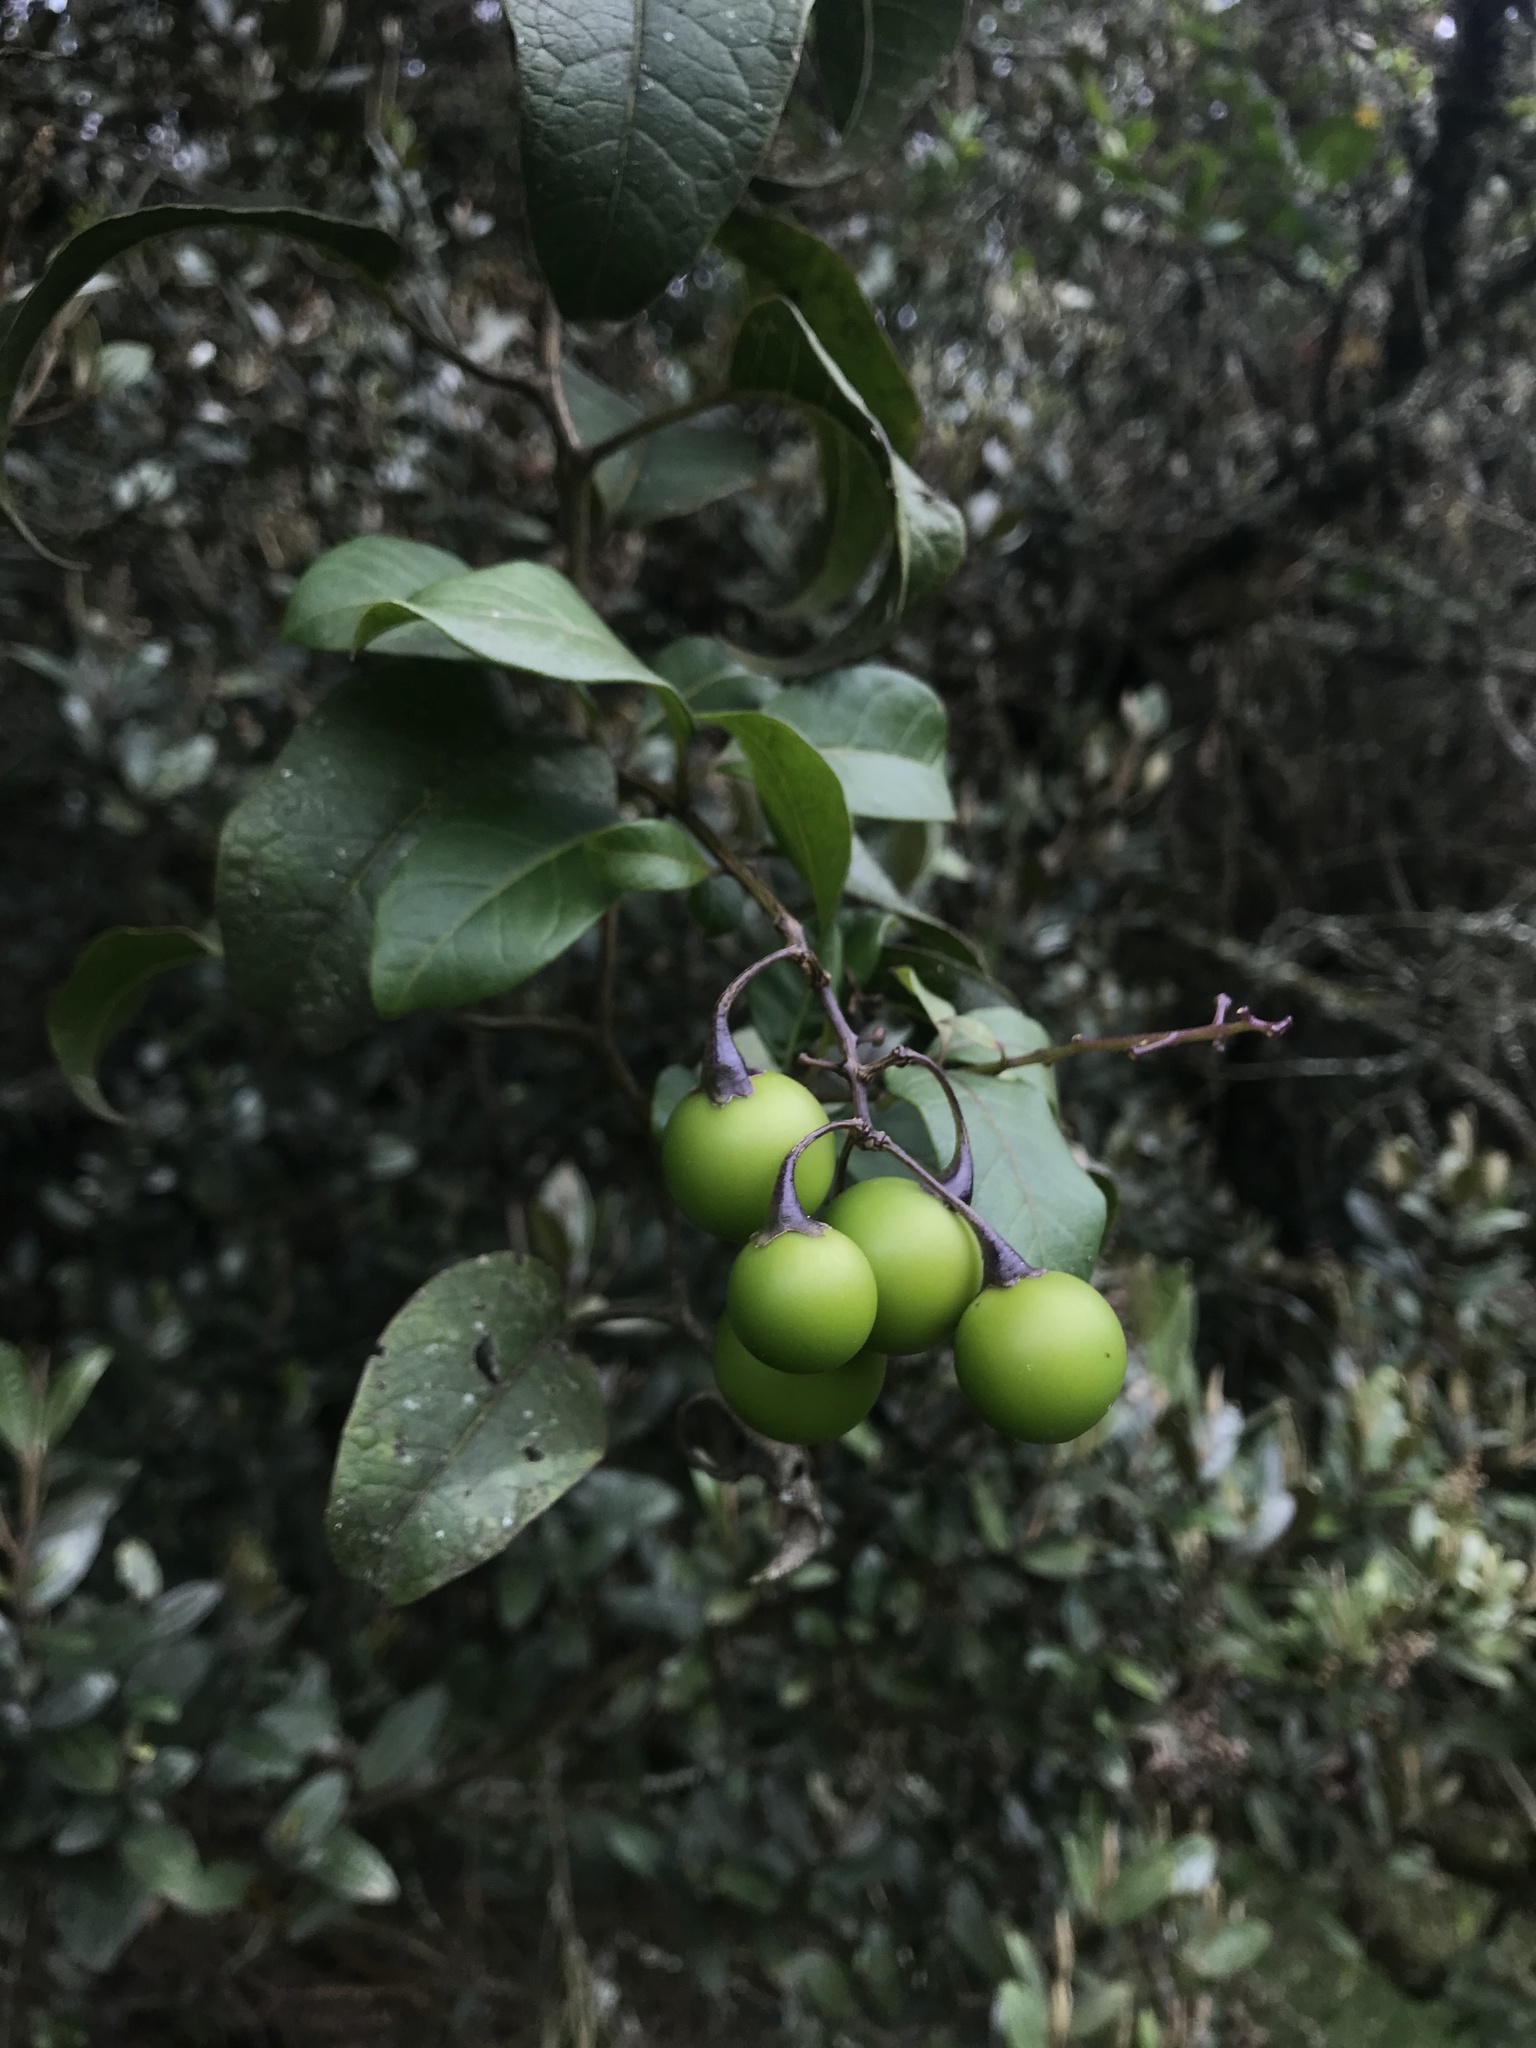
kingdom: Plantae
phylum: Tracheophyta
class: Magnoliopsida
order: Solanales
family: Solanaceae
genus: Solanum
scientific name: Solanum luculentum
